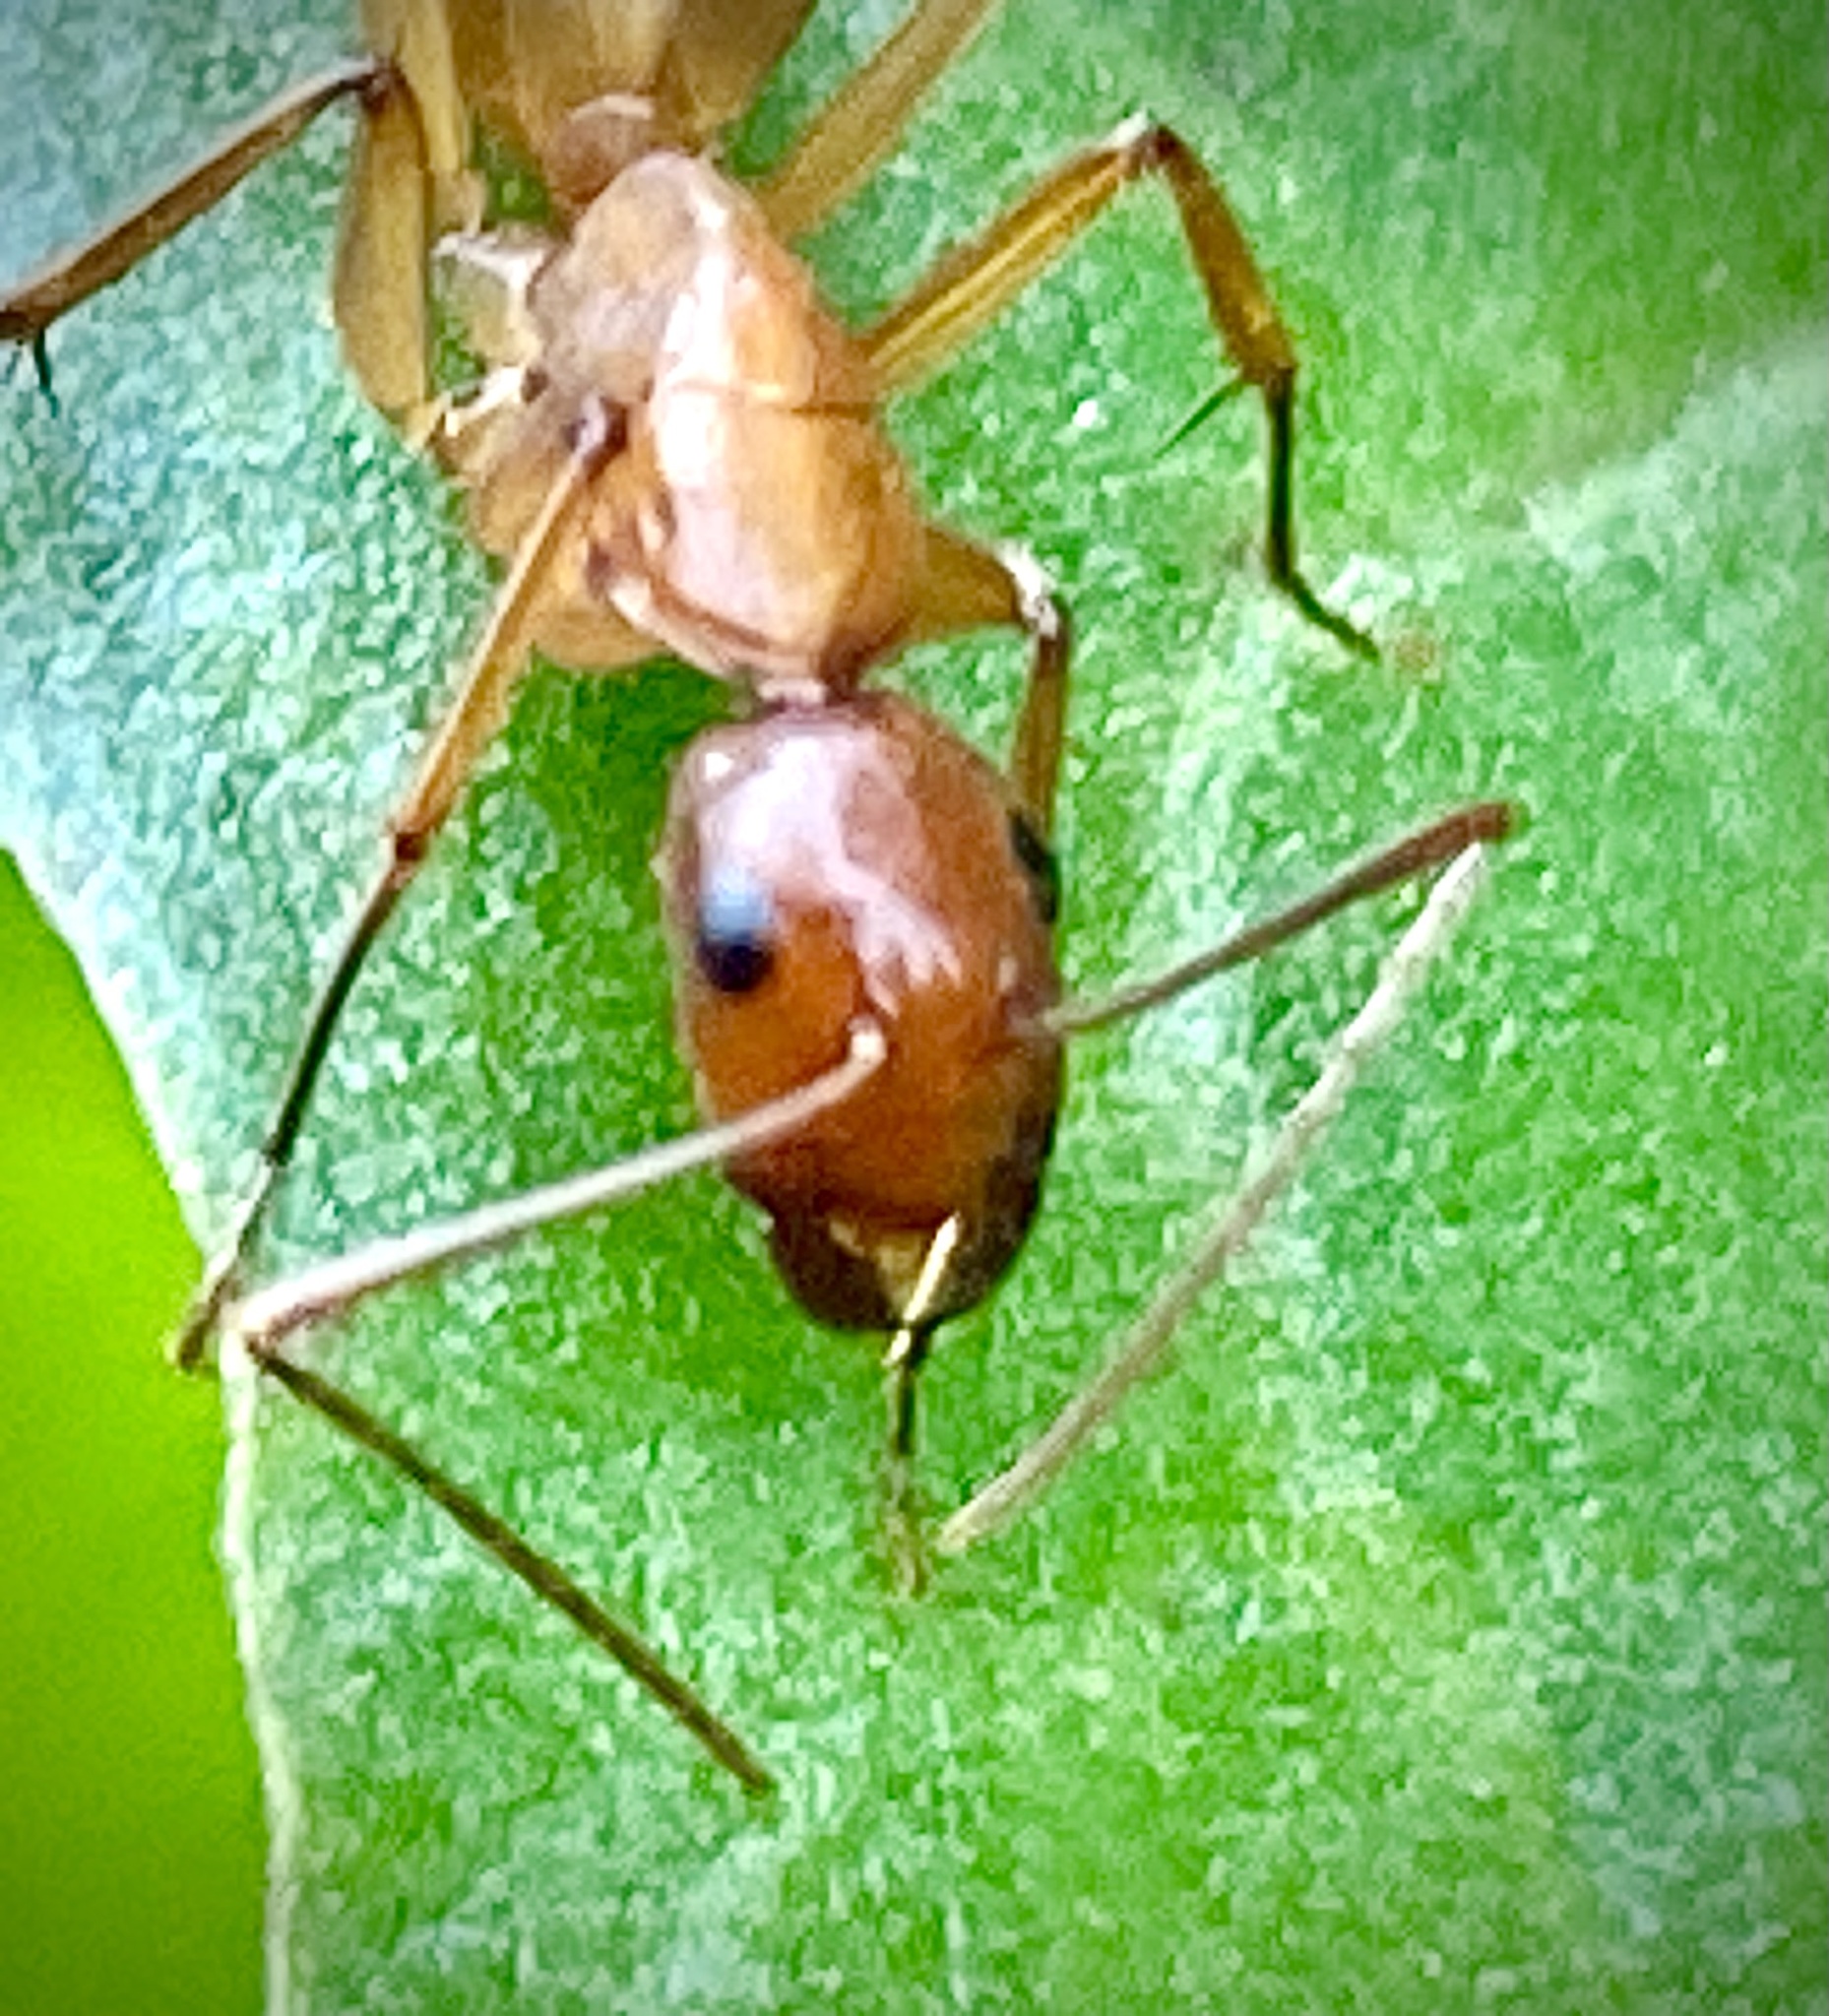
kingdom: Animalia
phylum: Arthropoda
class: Insecta
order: Hymenoptera
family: Formicidae
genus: Camponotus
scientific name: Camponotus castaneus
